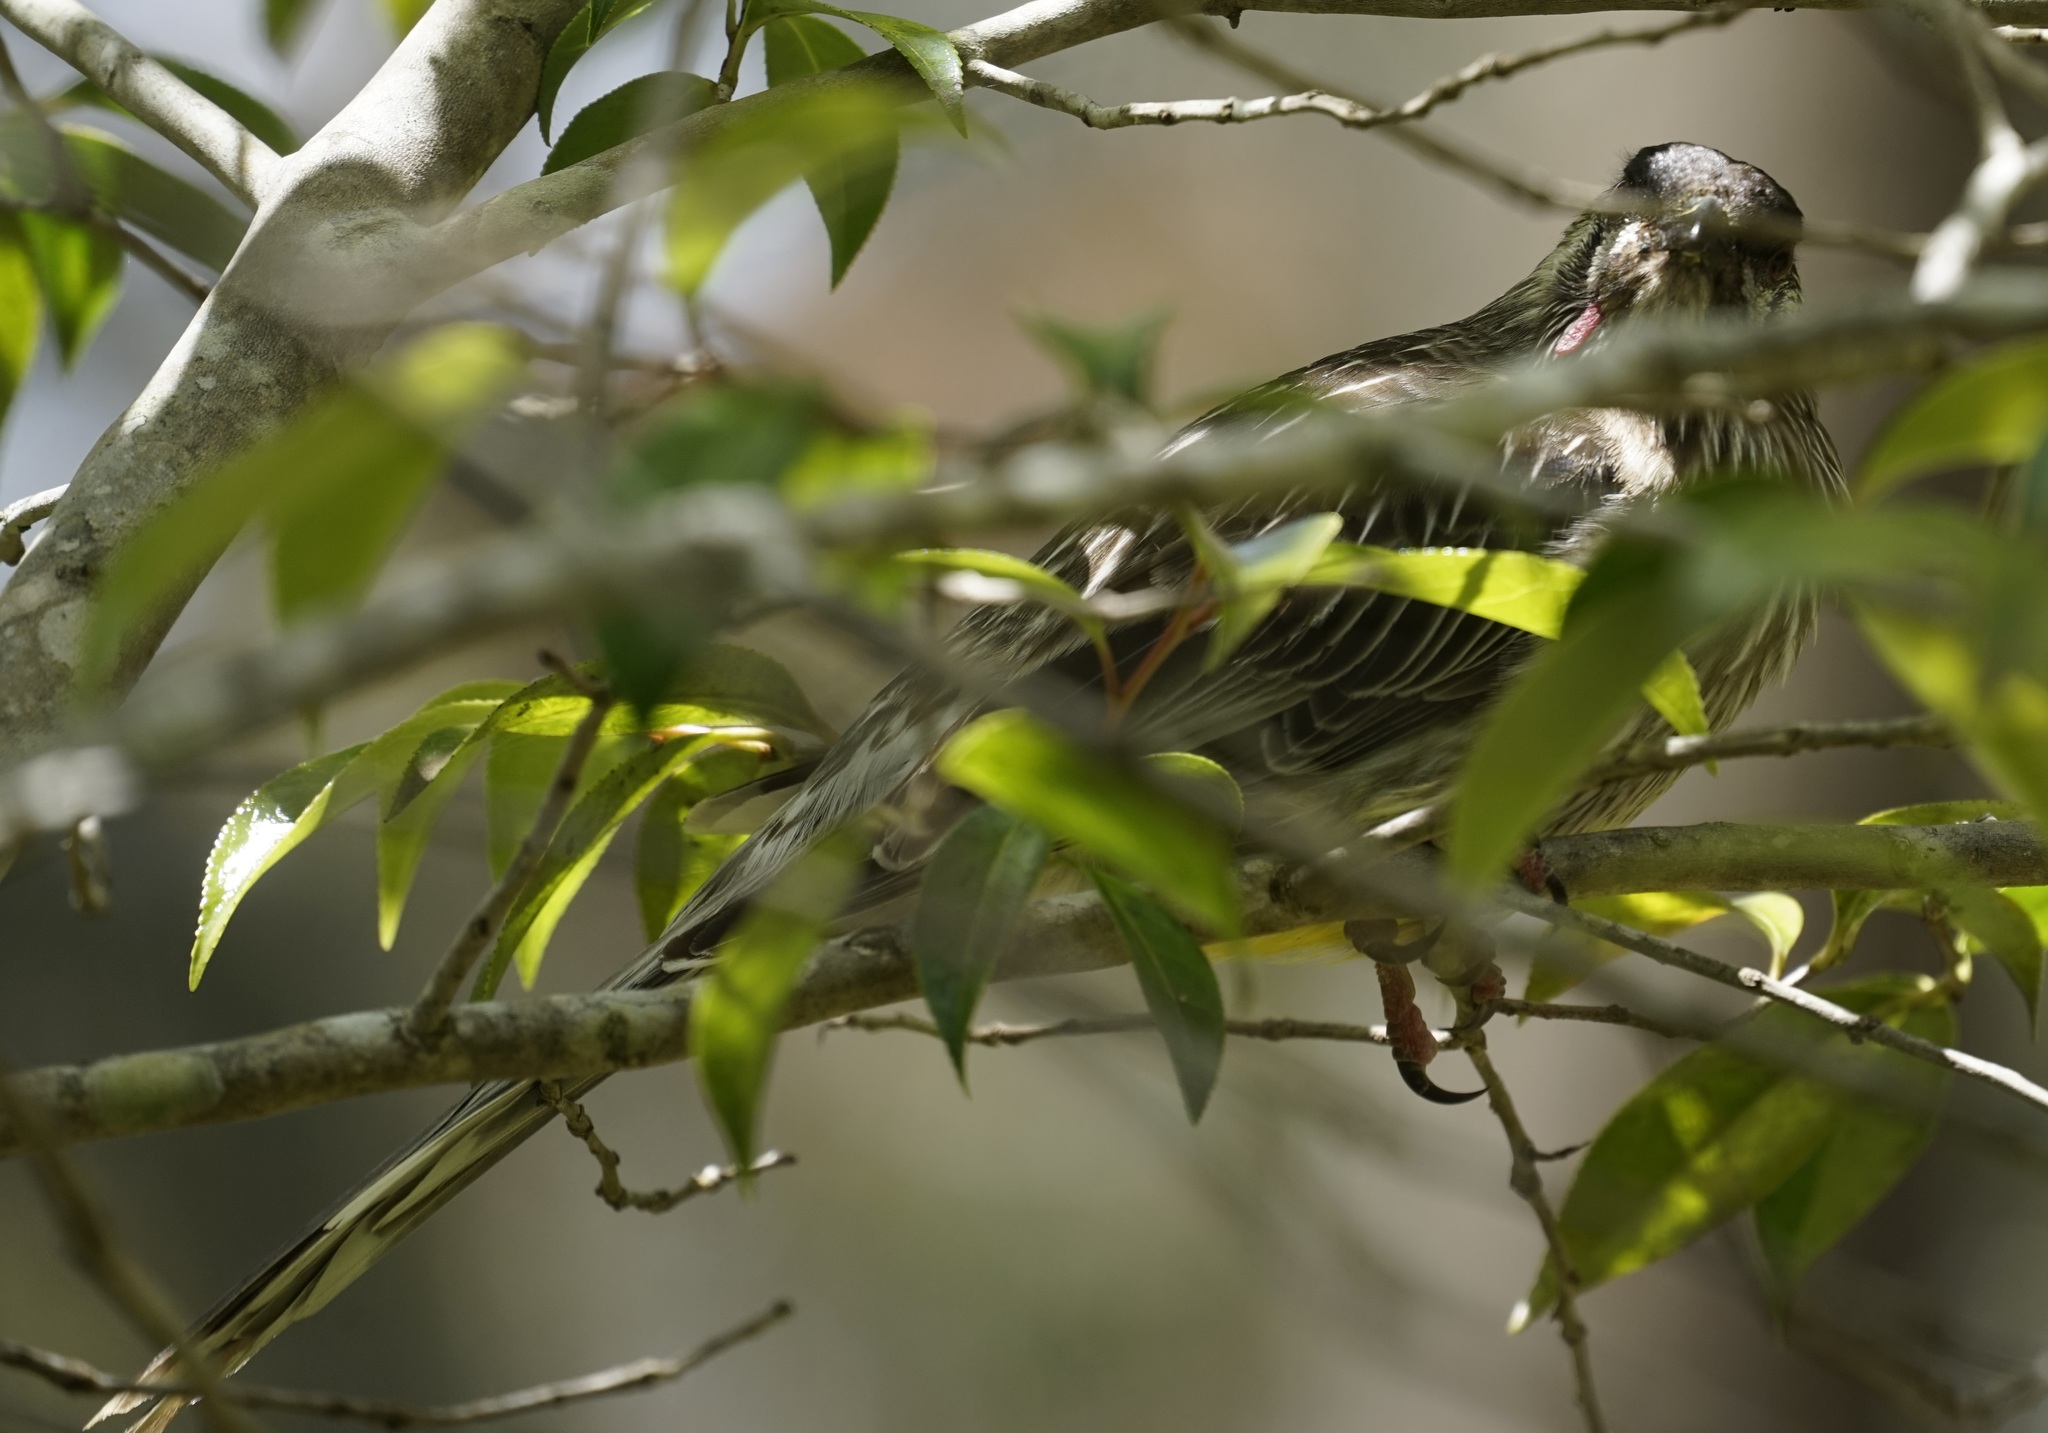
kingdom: Animalia
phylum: Chordata
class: Aves
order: Passeriformes
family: Meliphagidae
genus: Anthochaera
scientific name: Anthochaera carunculata
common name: Red wattlebird
